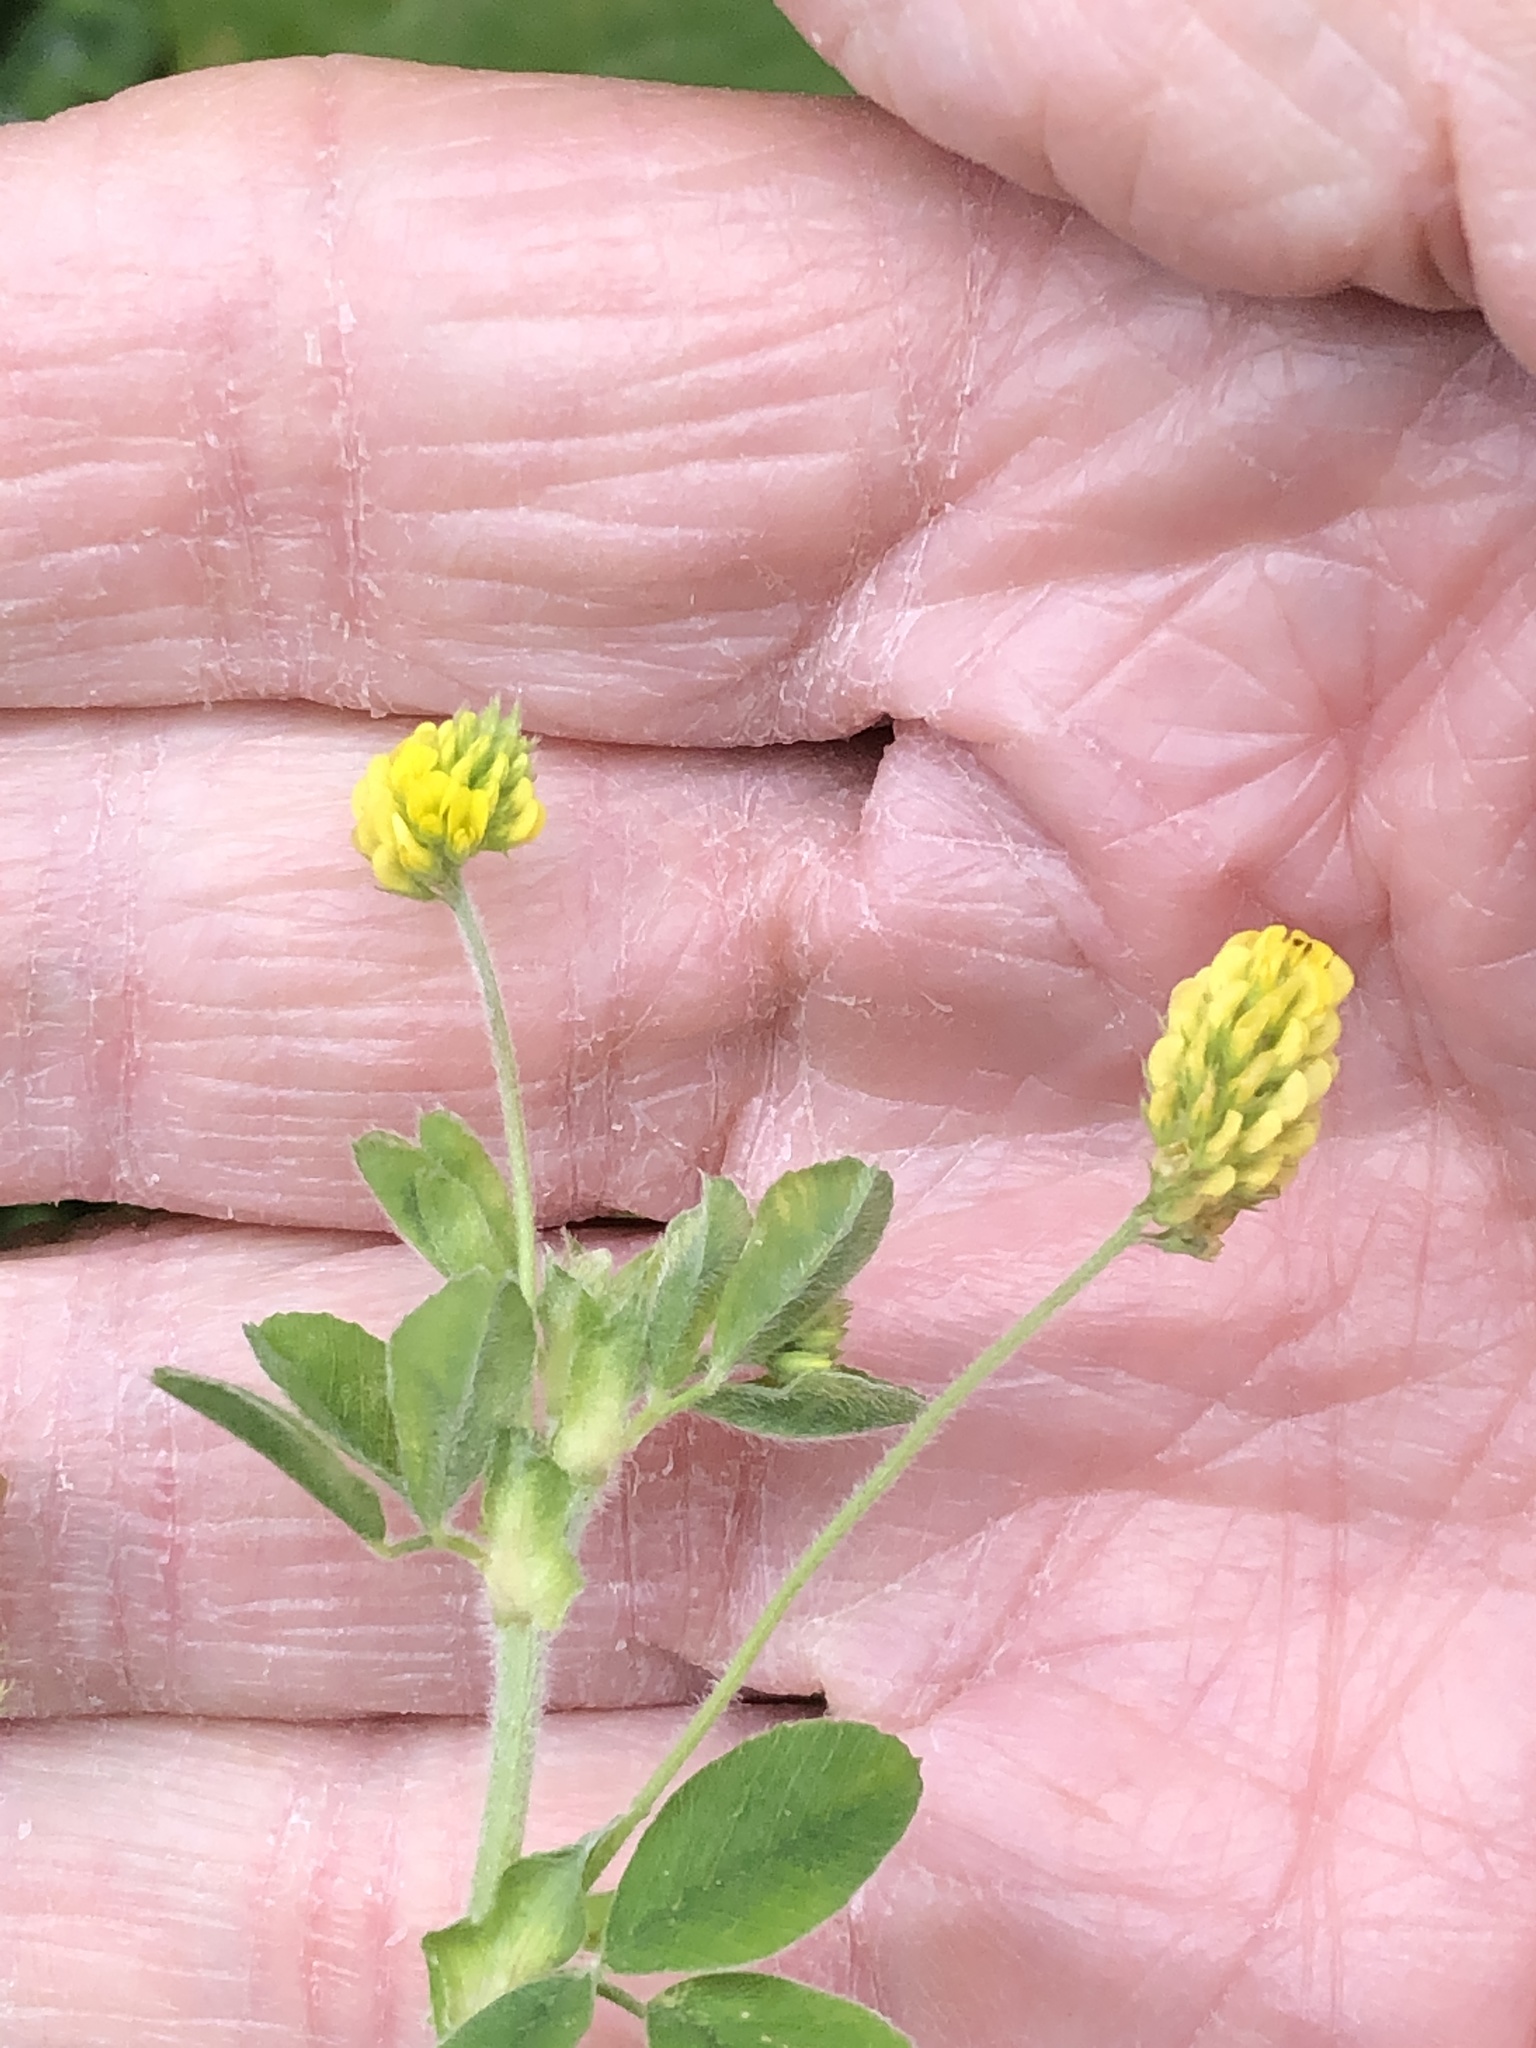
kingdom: Plantae
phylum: Tracheophyta
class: Magnoliopsida
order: Fabales
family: Fabaceae
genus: Medicago
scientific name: Medicago lupulina
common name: Black medick
